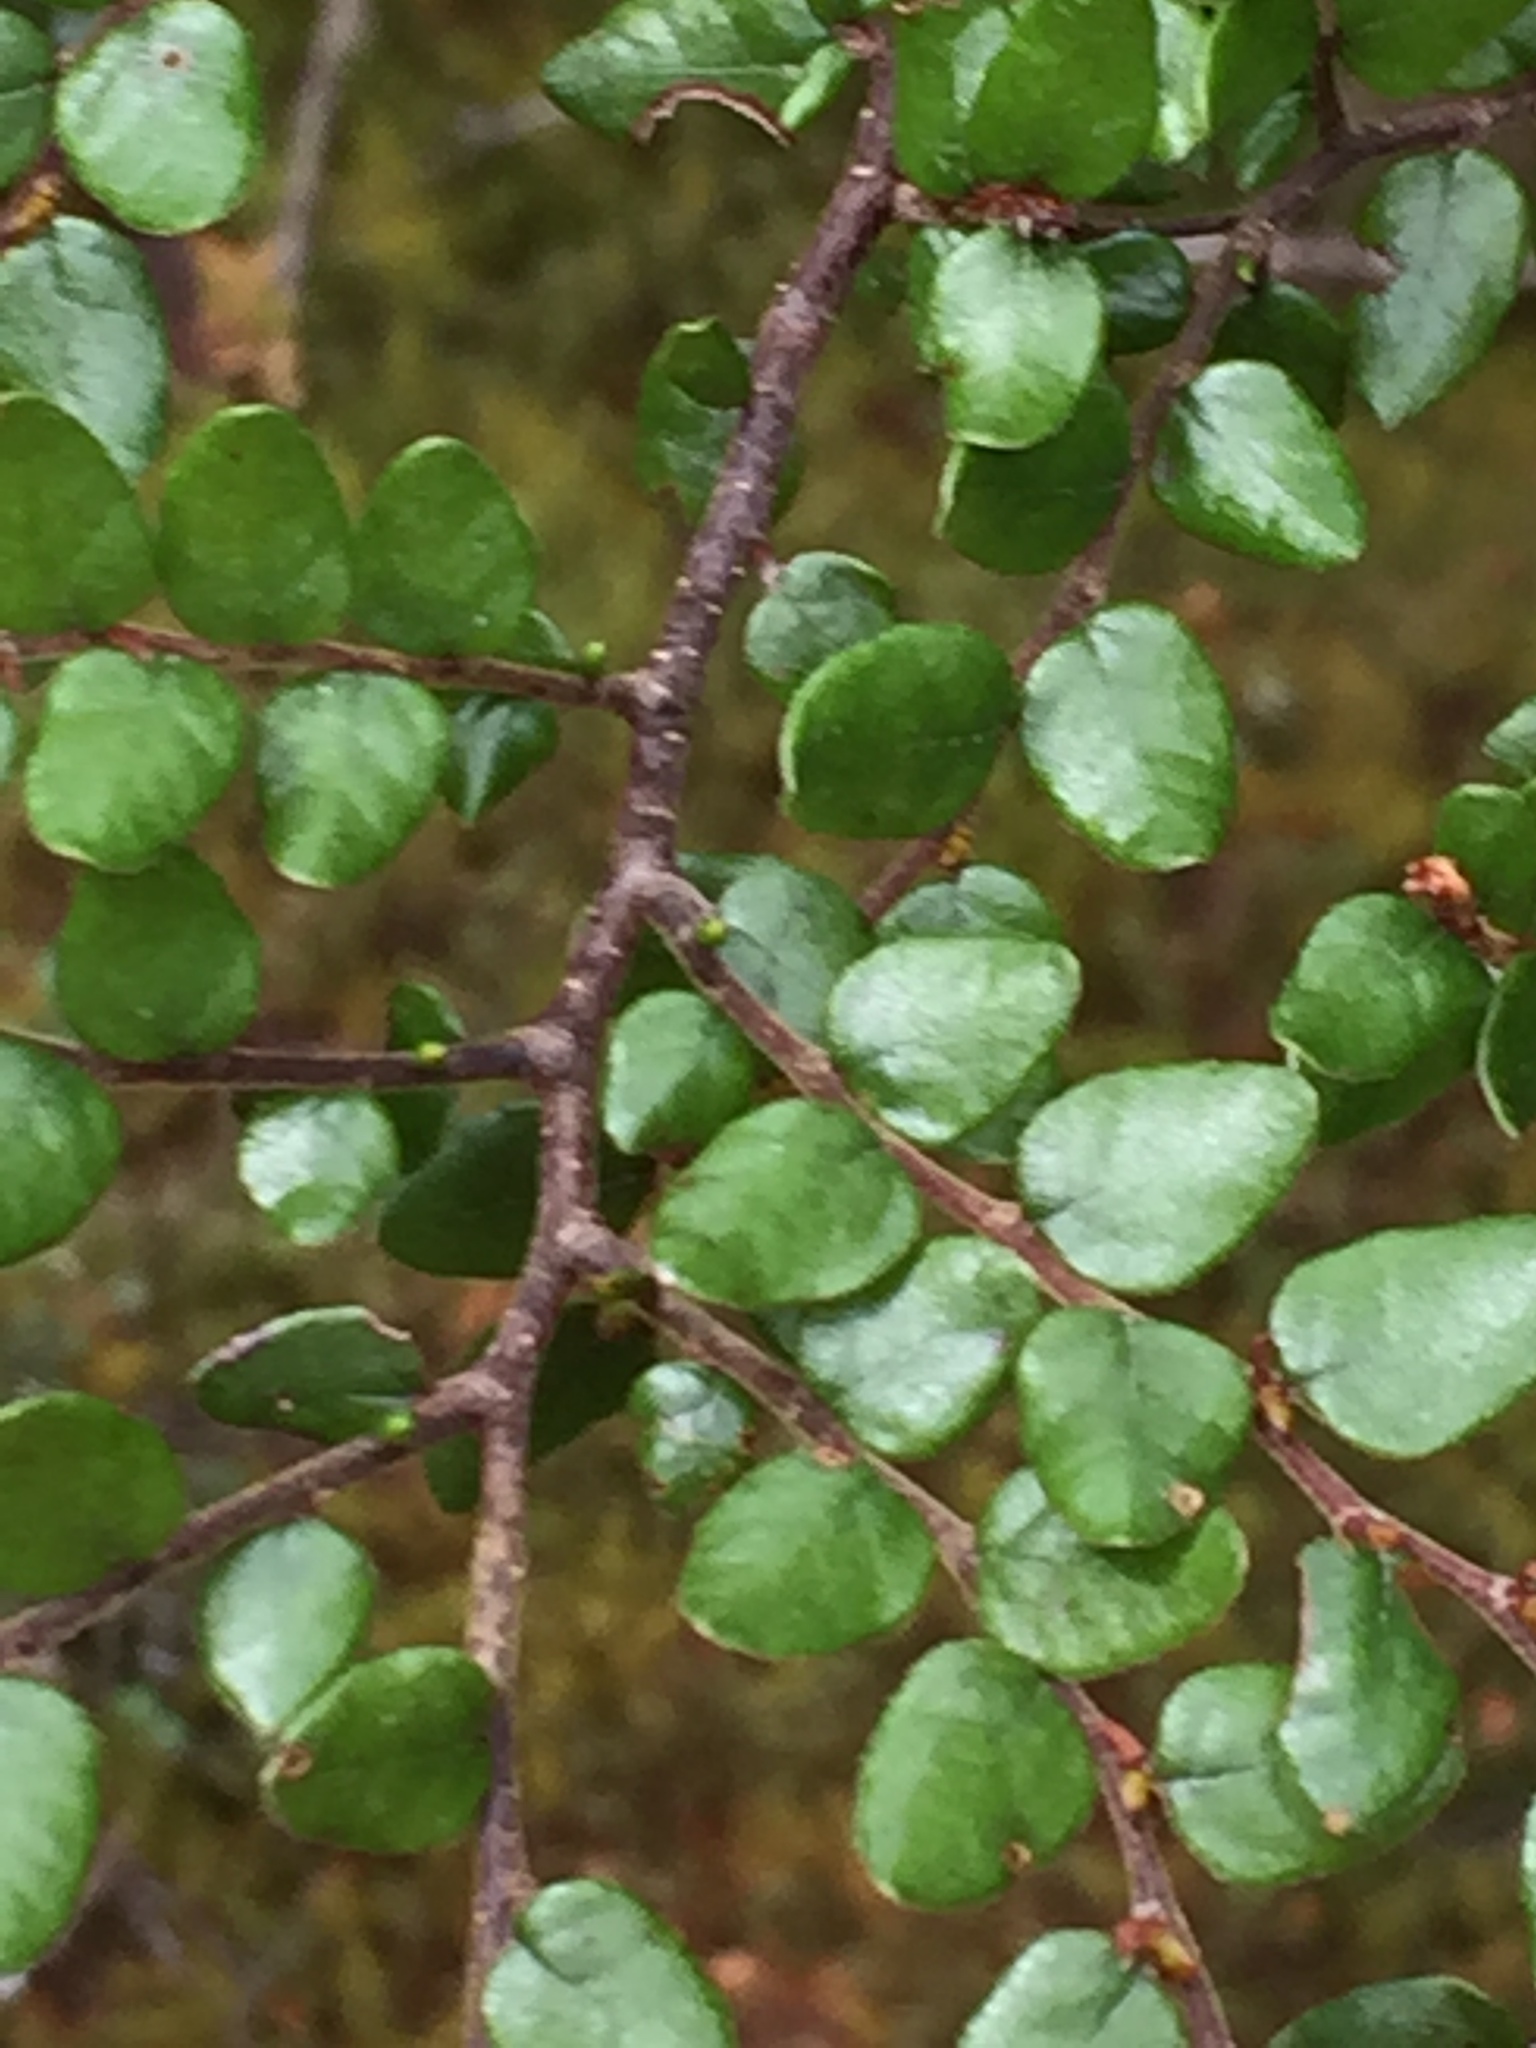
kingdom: Plantae
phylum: Tracheophyta
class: Magnoliopsida
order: Fagales
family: Nothofagaceae
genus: Nothofagus
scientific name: Nothofagus cliffortioides
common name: Mountain beech
